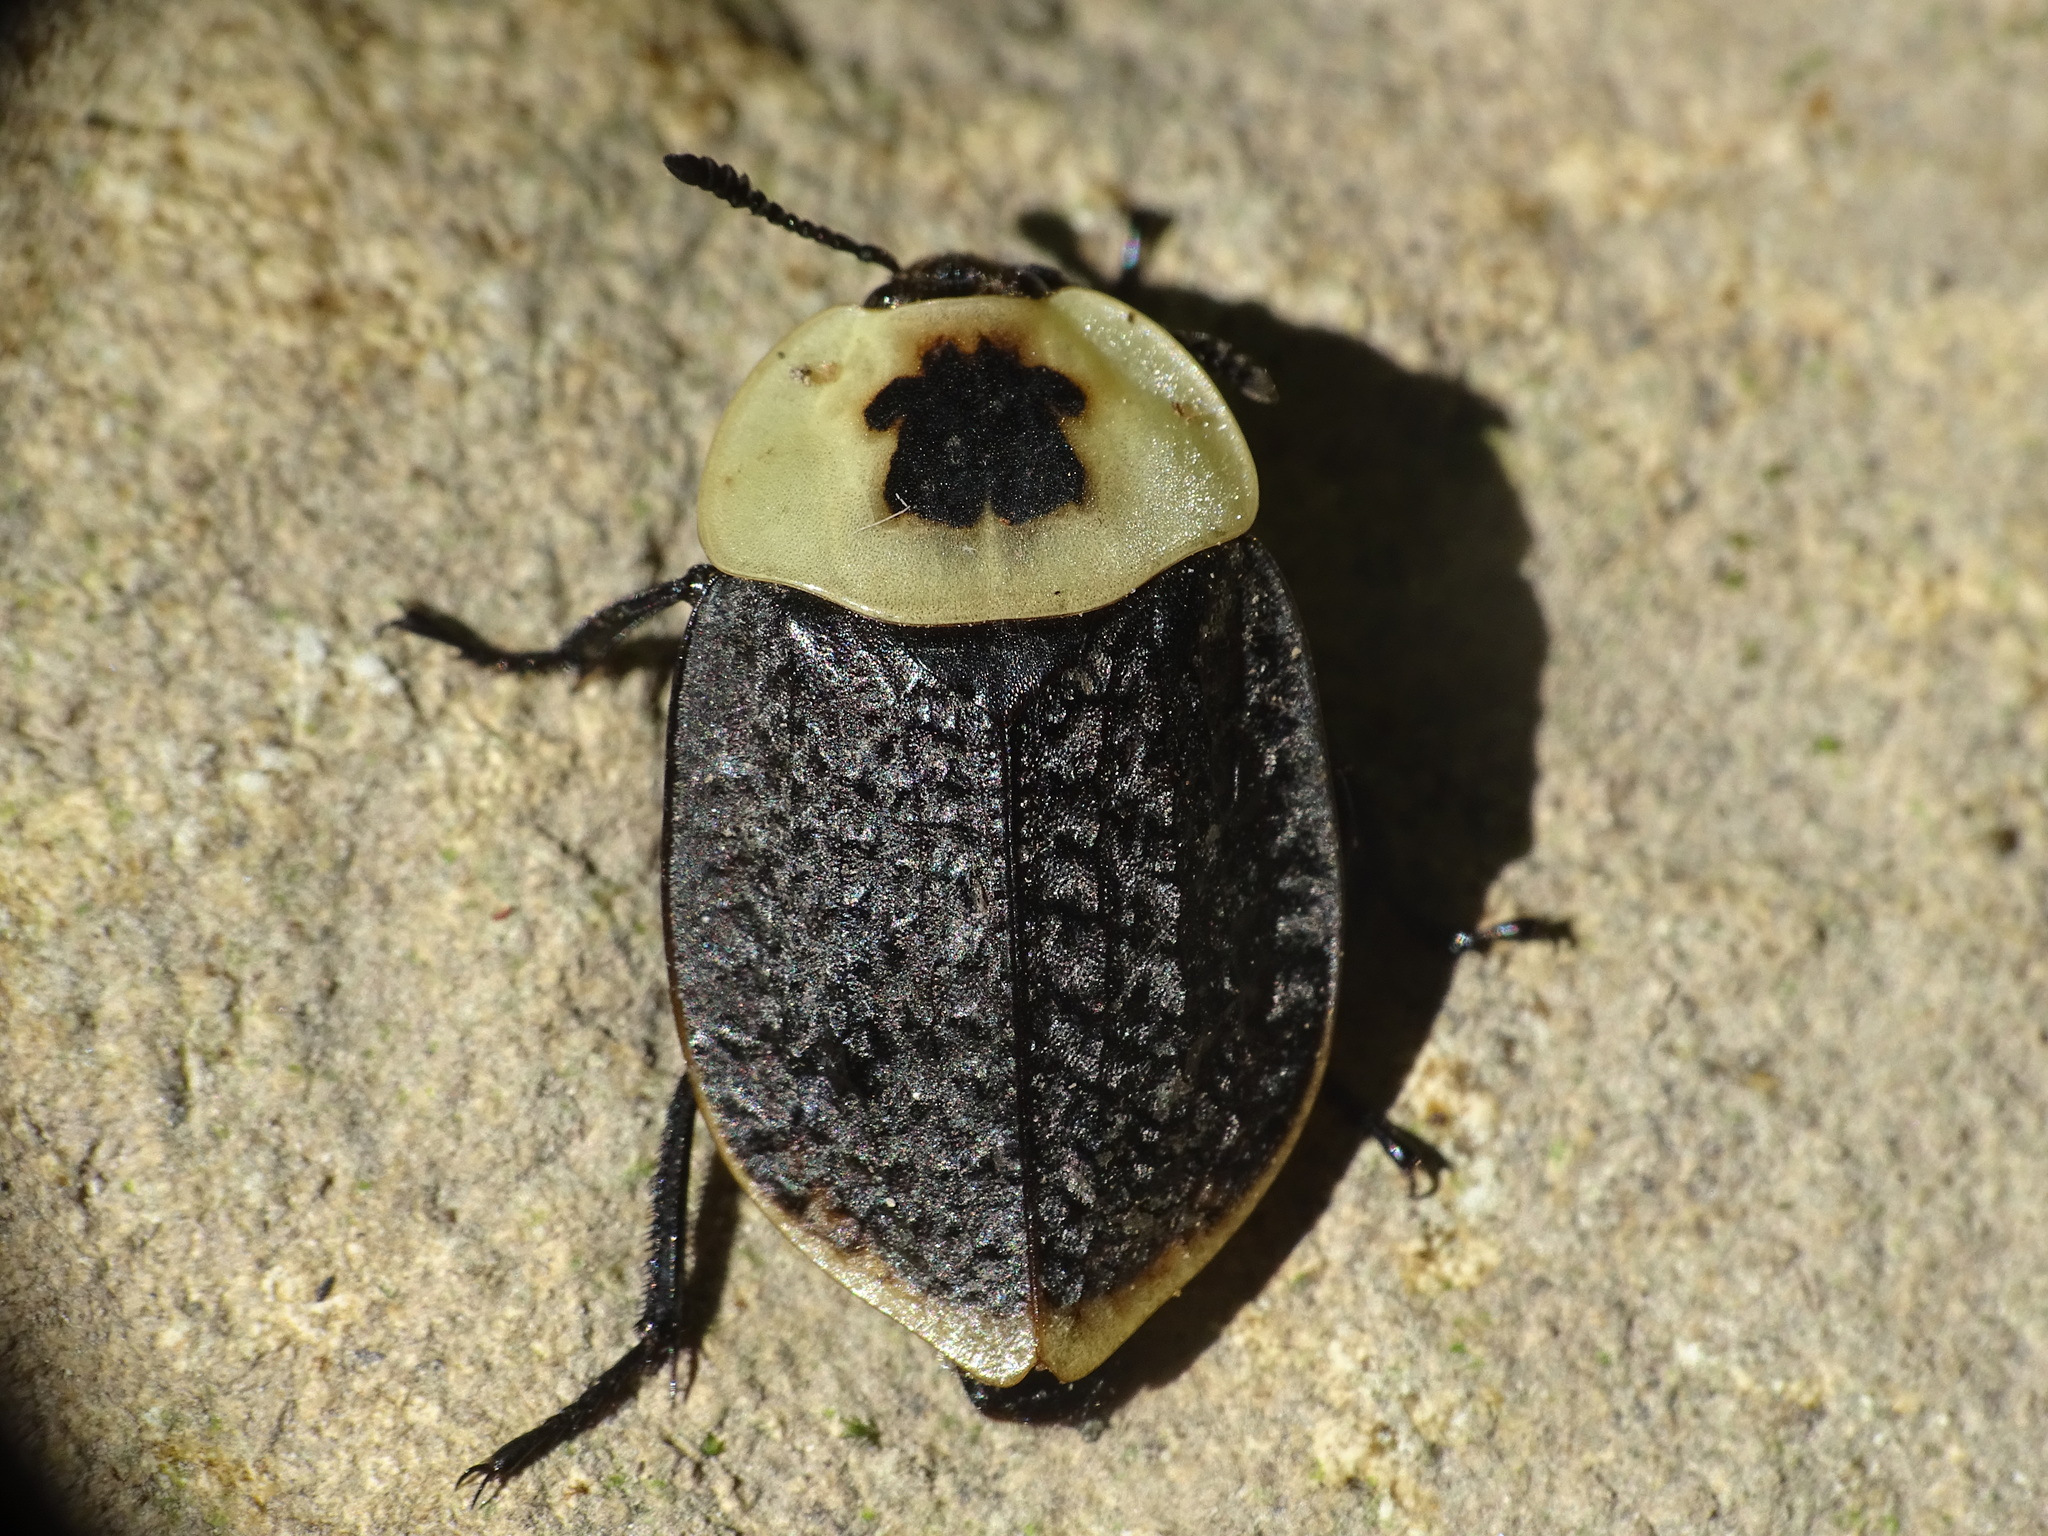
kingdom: Animalia
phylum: Arthropoda
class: Insecta
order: Coleoptera
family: Staphylinidae
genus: Necrophila
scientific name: Necrophila americana
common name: American carrion beetle
